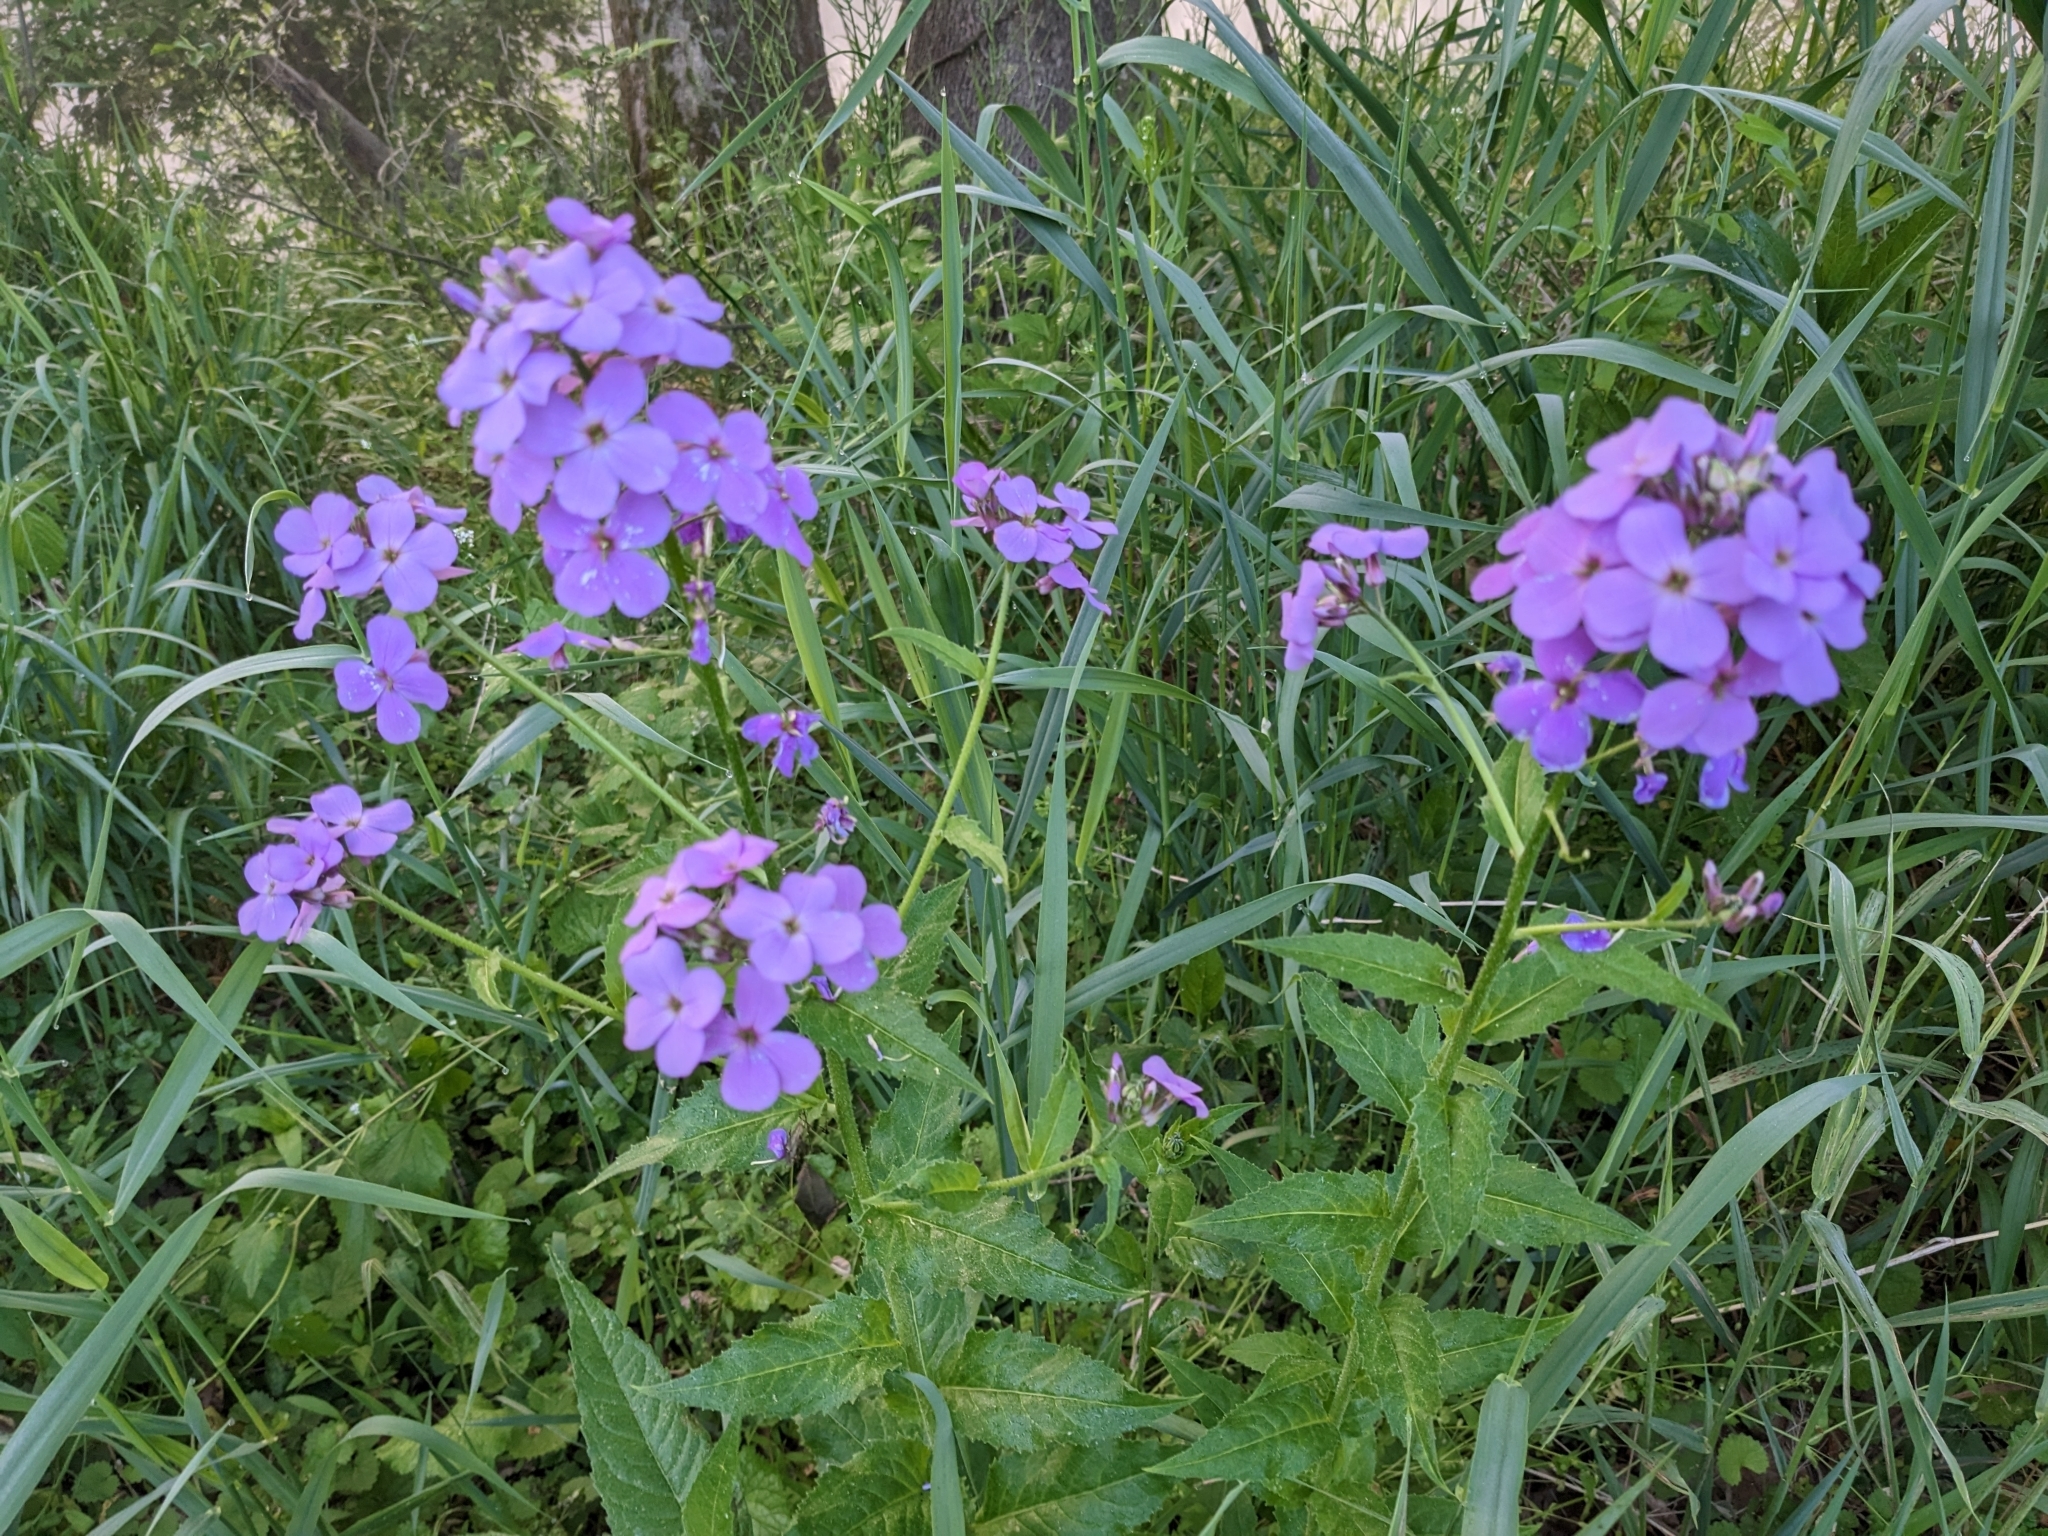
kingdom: Plantae
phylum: Tracheophyta
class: Magnoliopsida
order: Brassicales
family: Brassicaceae
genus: Hesperis
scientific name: Hesperis matronalis
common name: Dame's-violet
